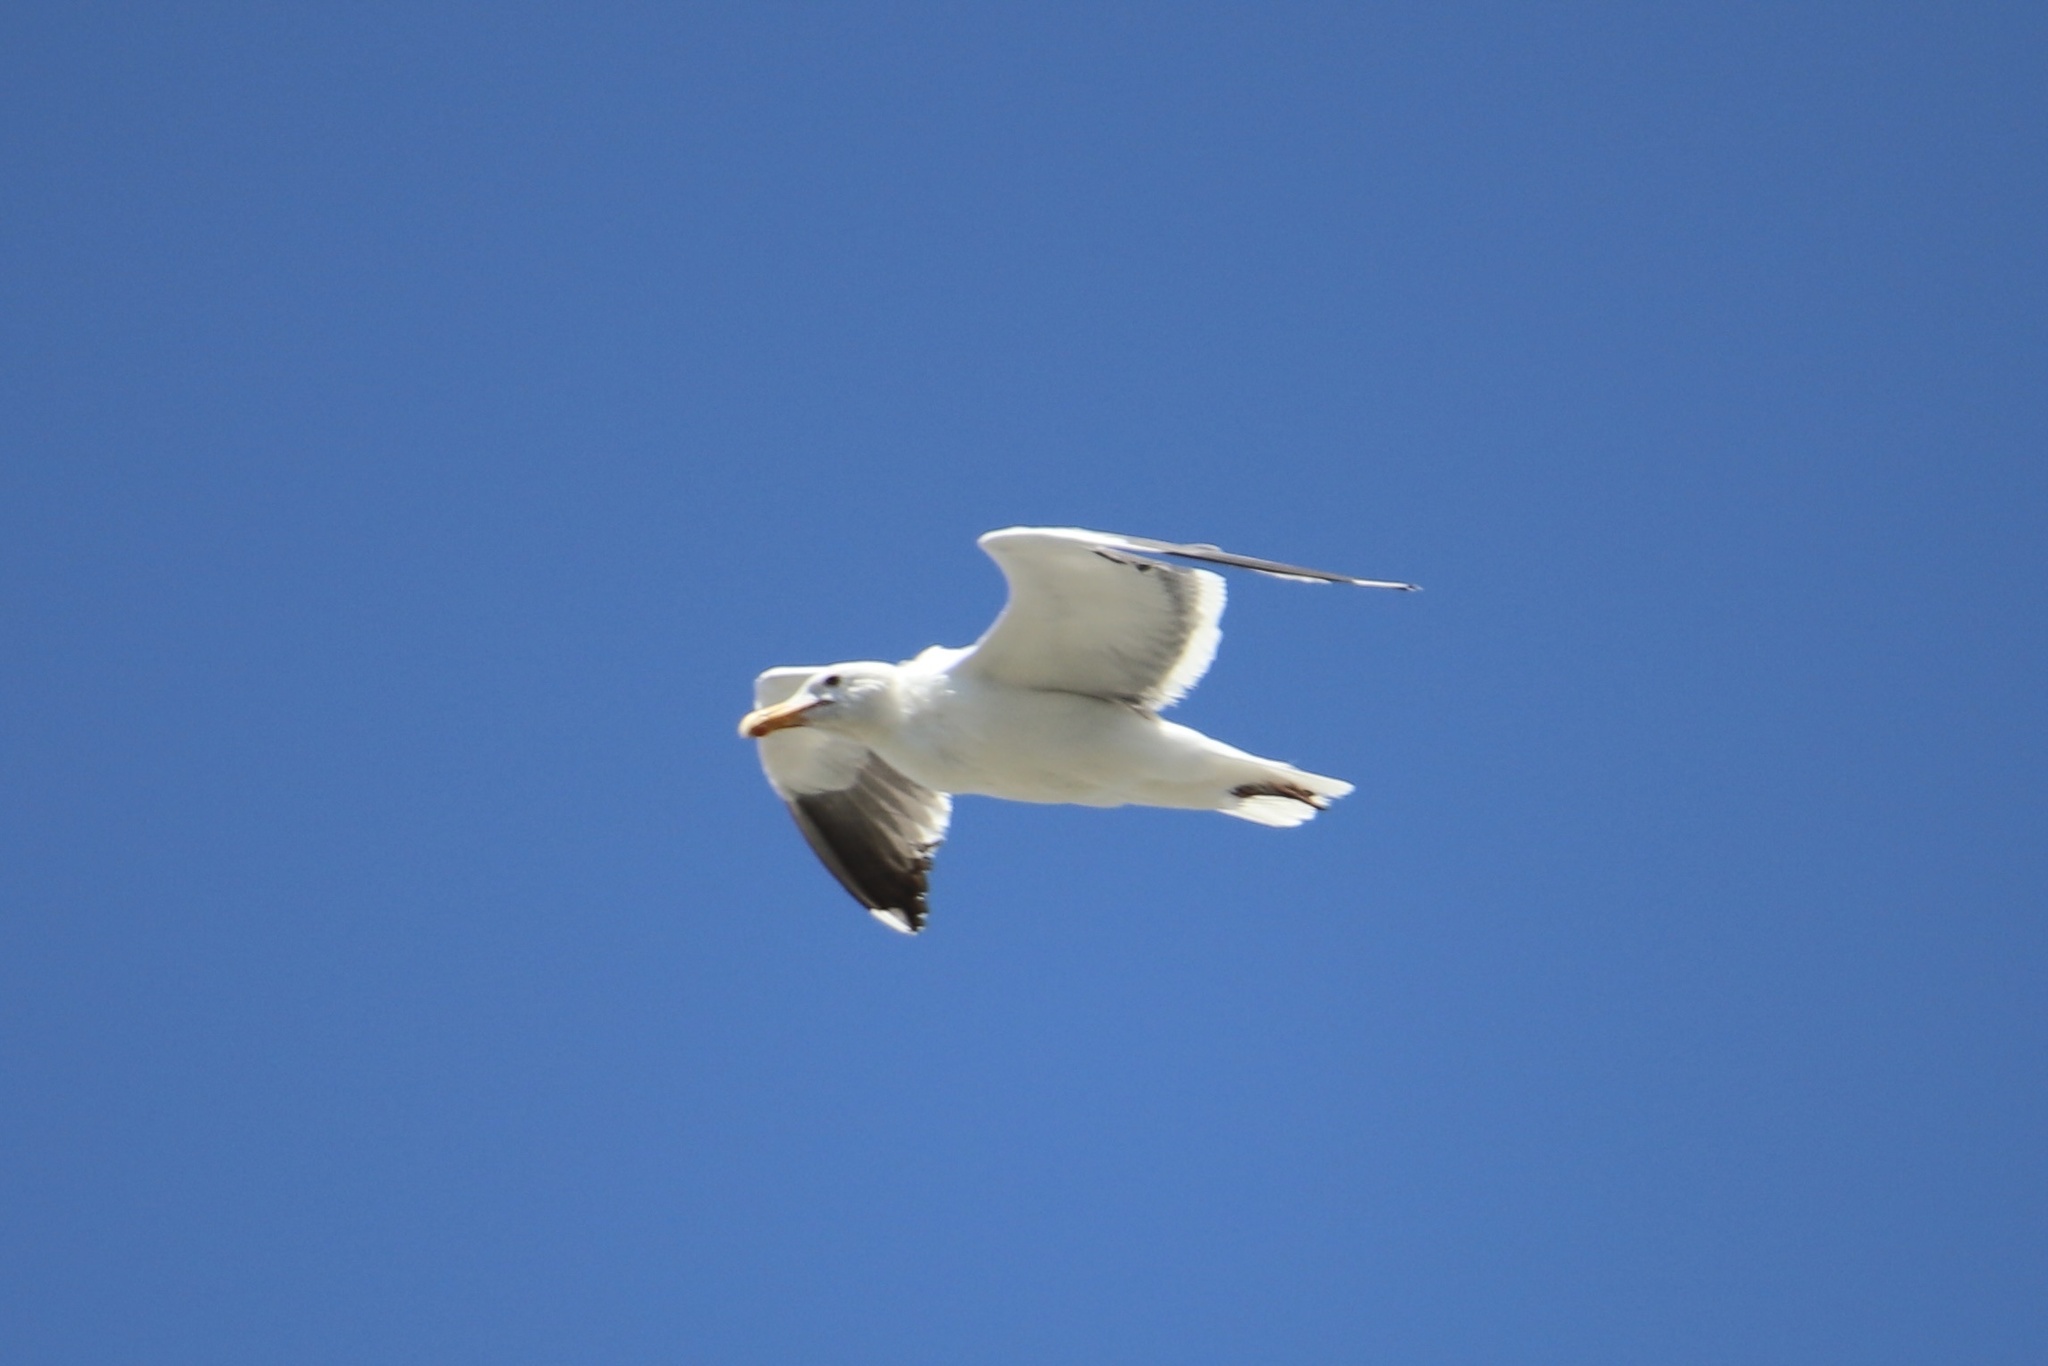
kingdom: Animalia
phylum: Chordata
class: Aves
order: Charadriiformes
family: Laridae
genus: Larus
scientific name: Larus occidentalis
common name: Western gull
